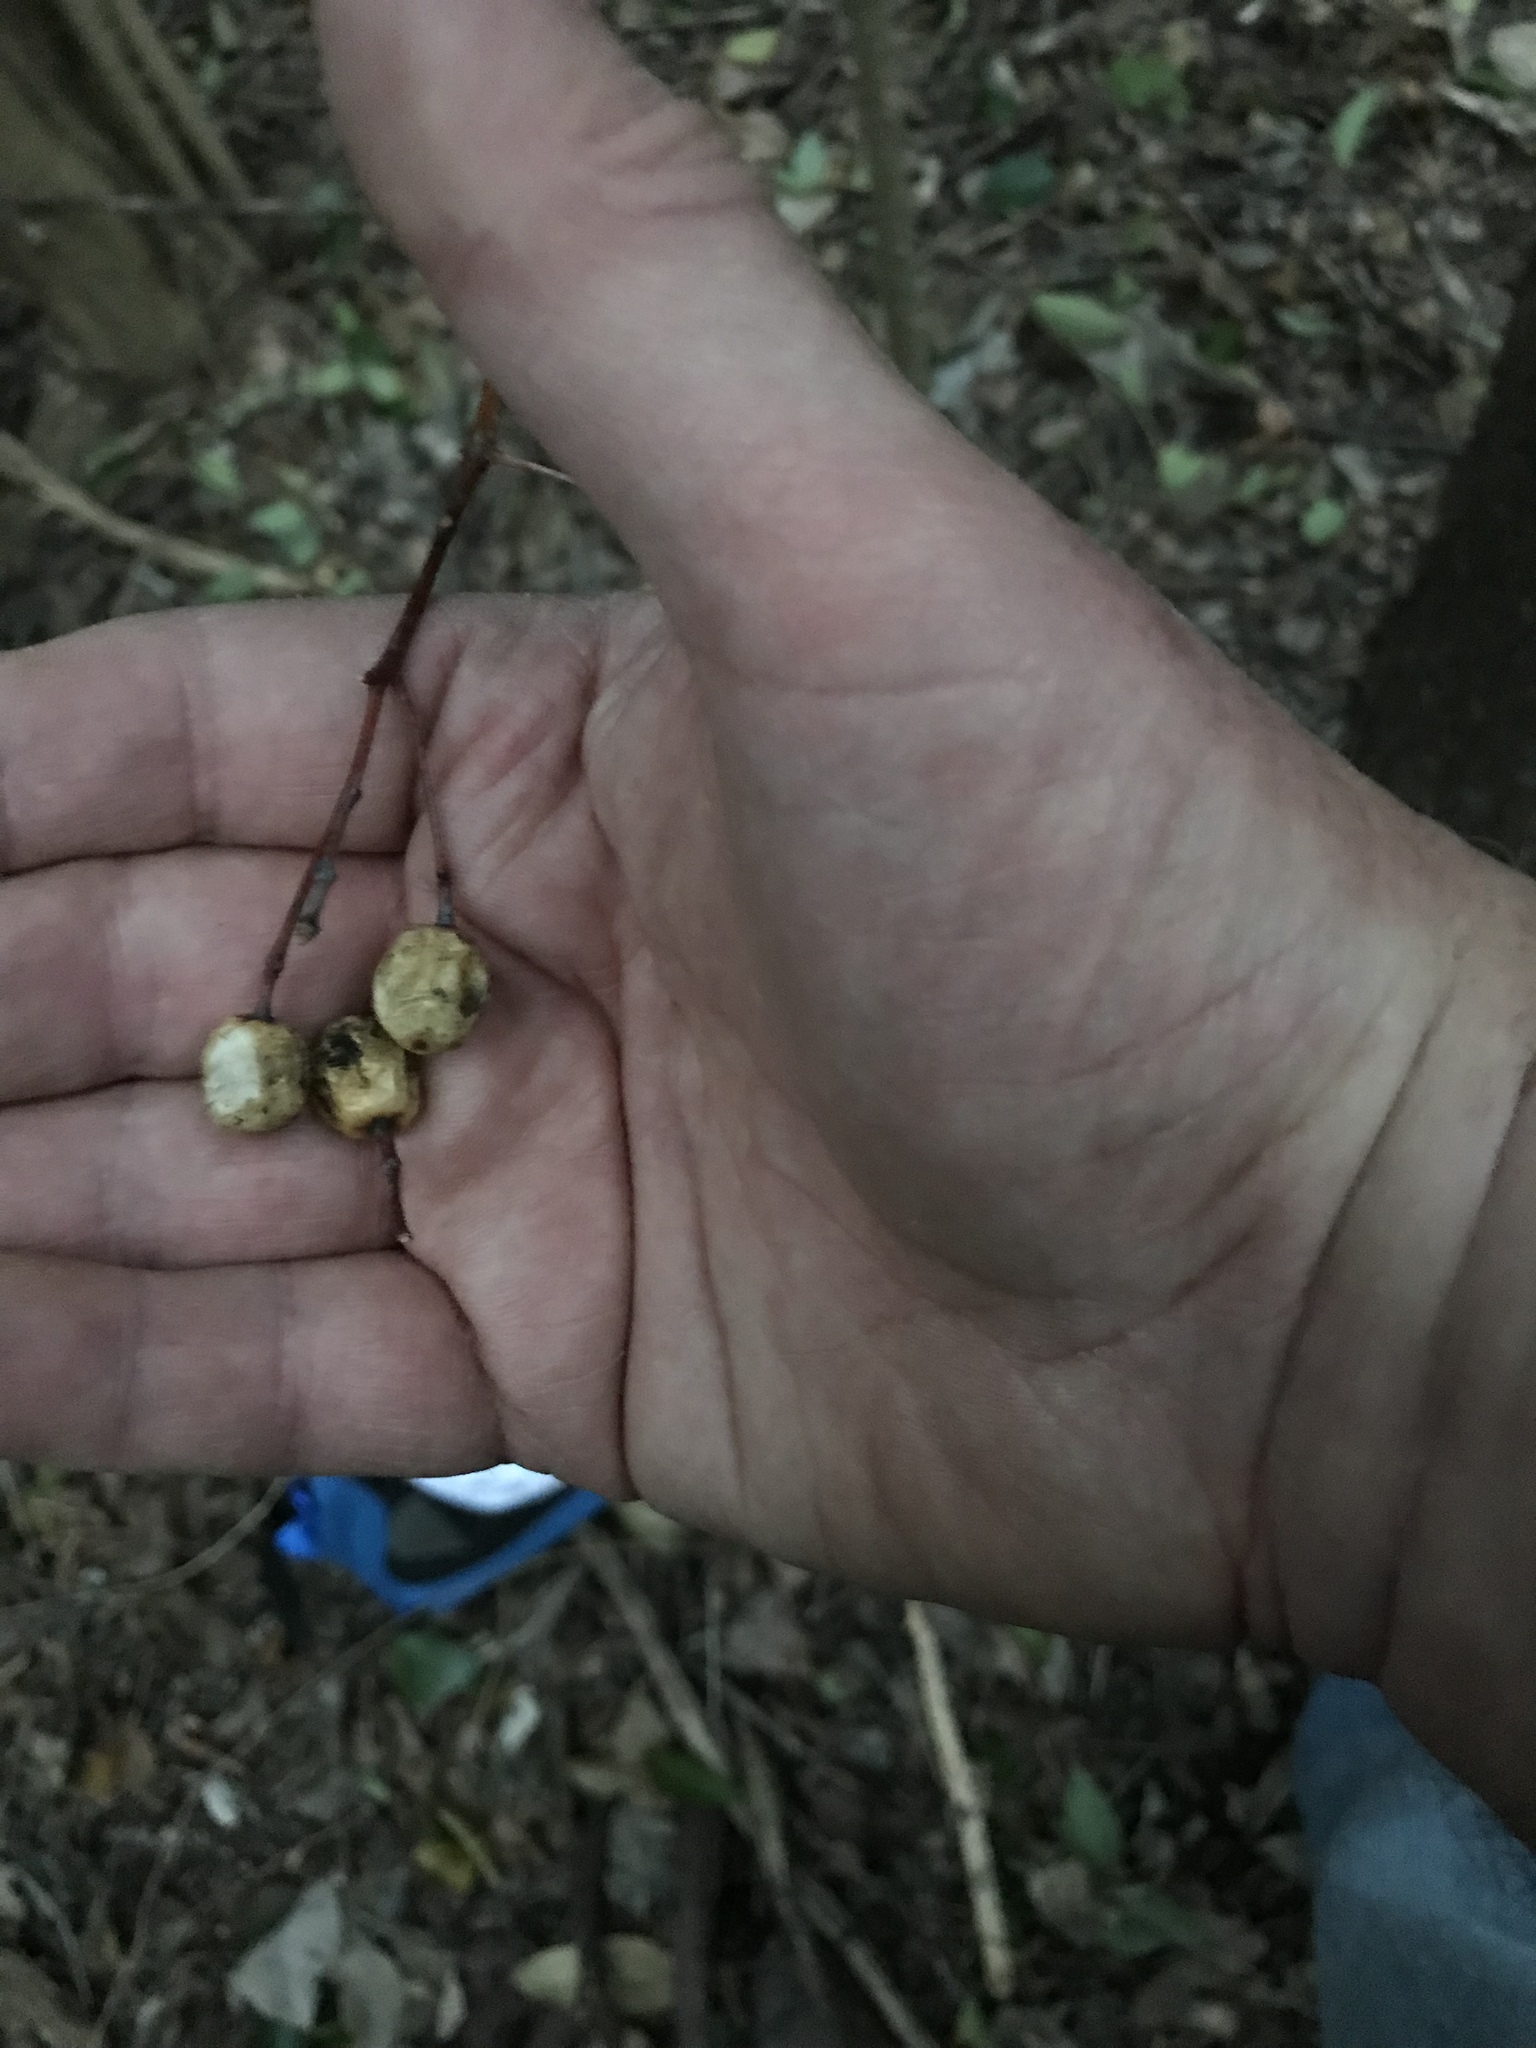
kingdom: Plantae
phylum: Tracheophyta
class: Magnoliopsida
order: Sapindales
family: Meliaceae
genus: Melia
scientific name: Melia azedarach
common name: Chinaberrytree
